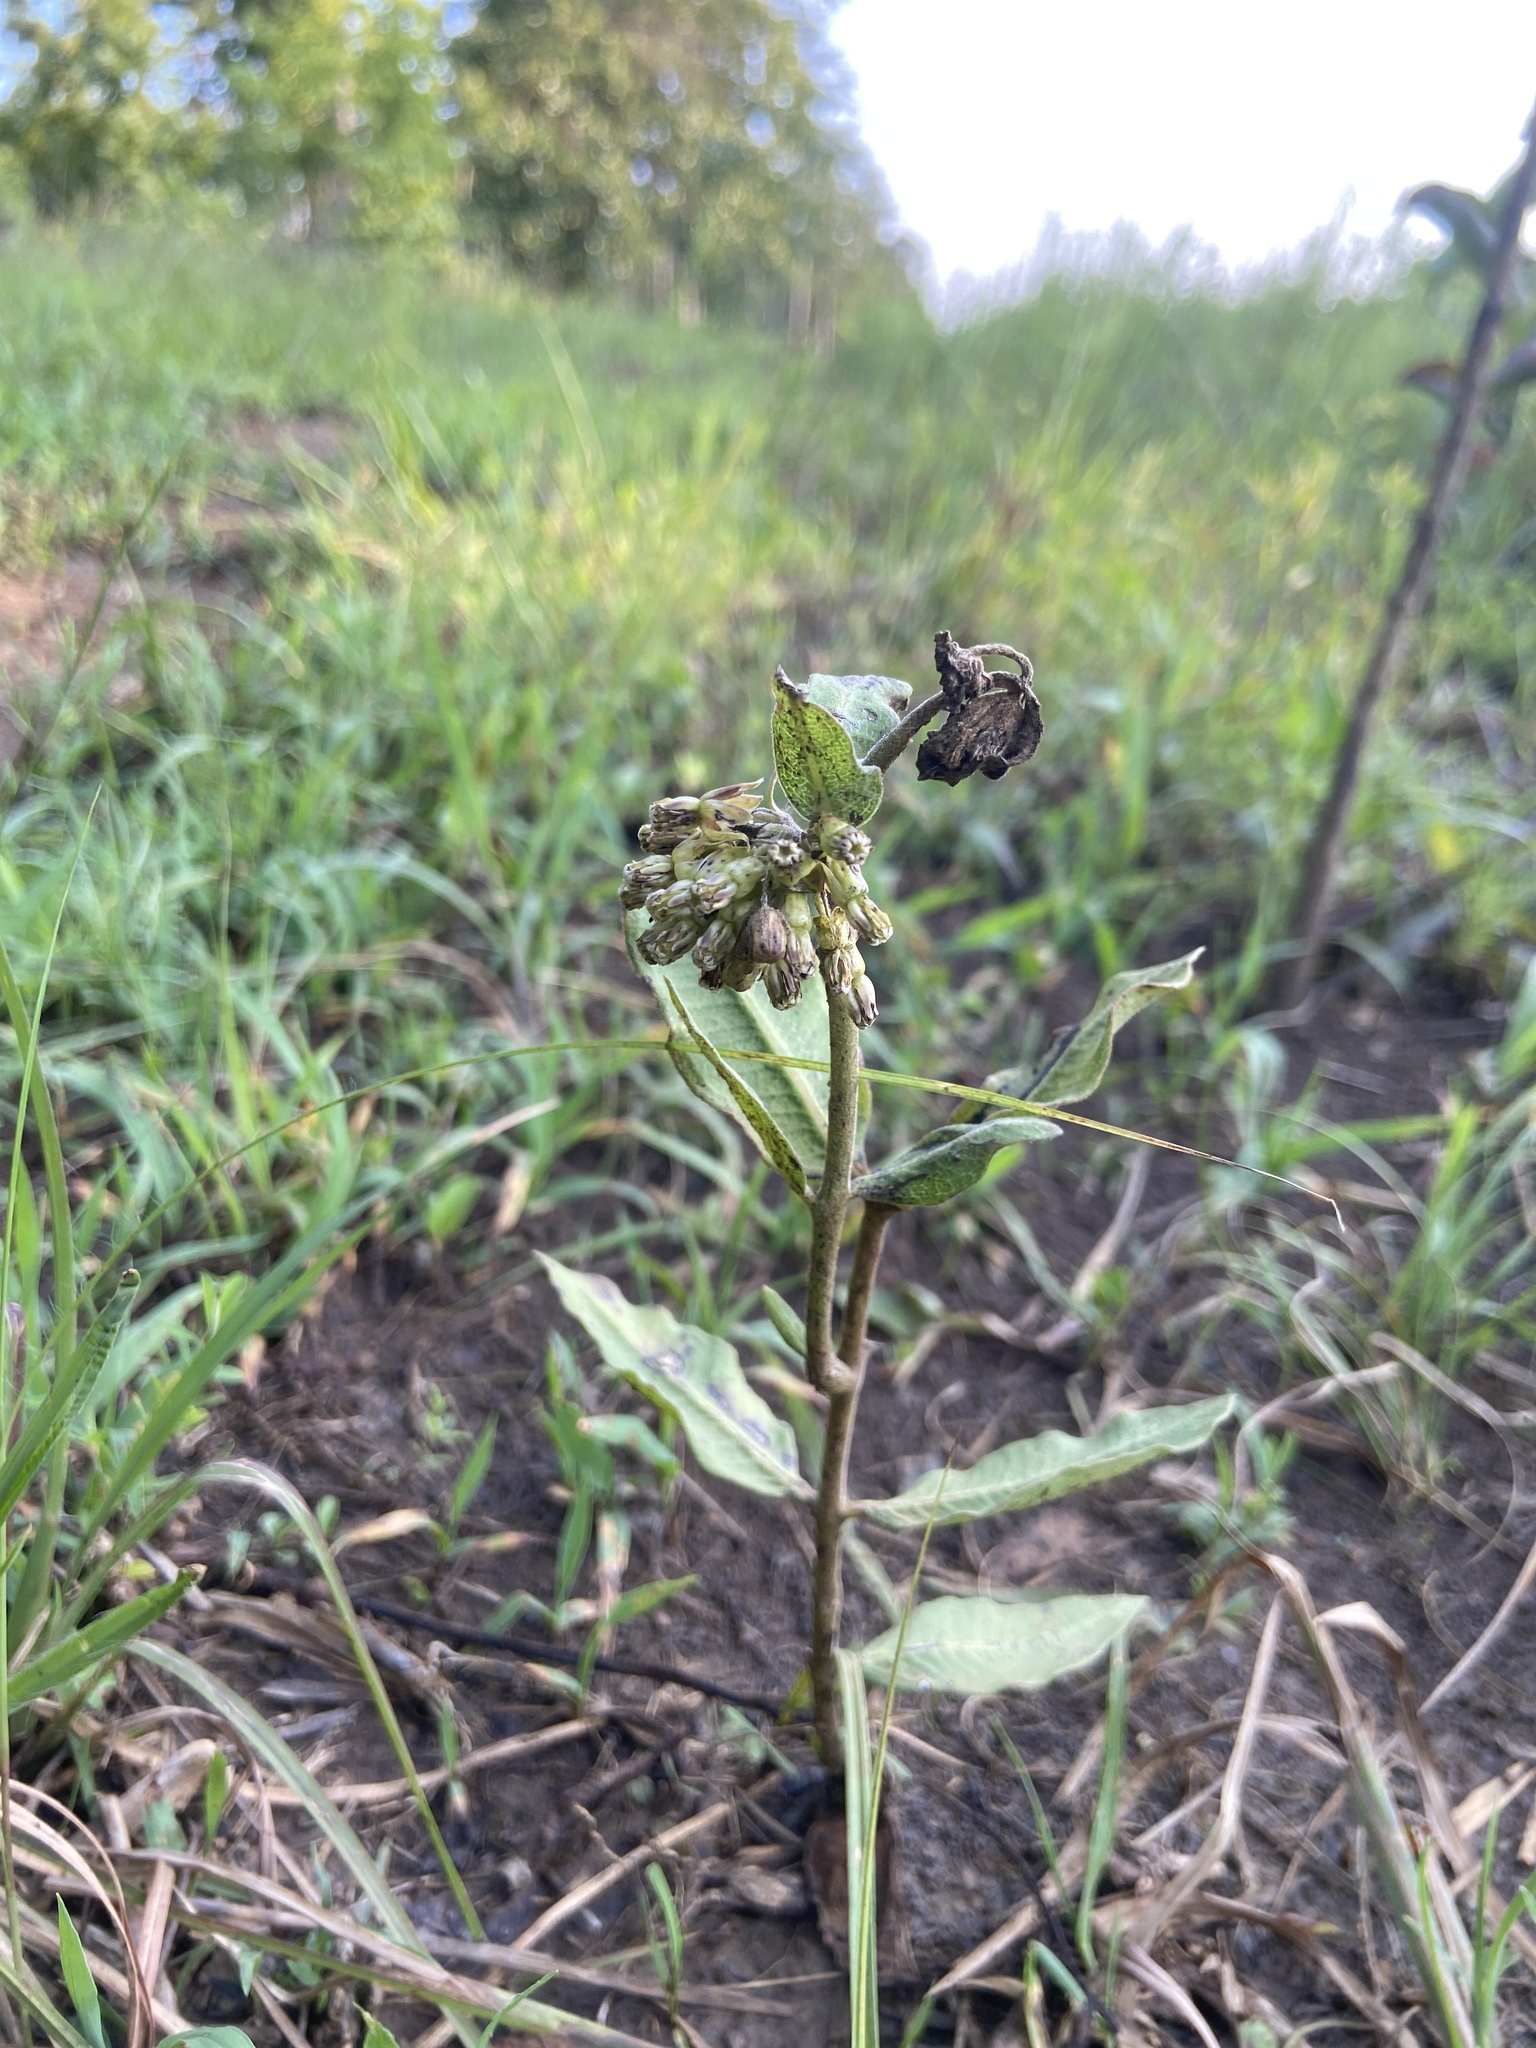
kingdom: Plantae
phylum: Tracheophyta
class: Magnoliopsida
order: Gentianales
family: Apocynaceae
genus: Asclepias
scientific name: Asclepias viridiflora
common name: Green comet milkweed
